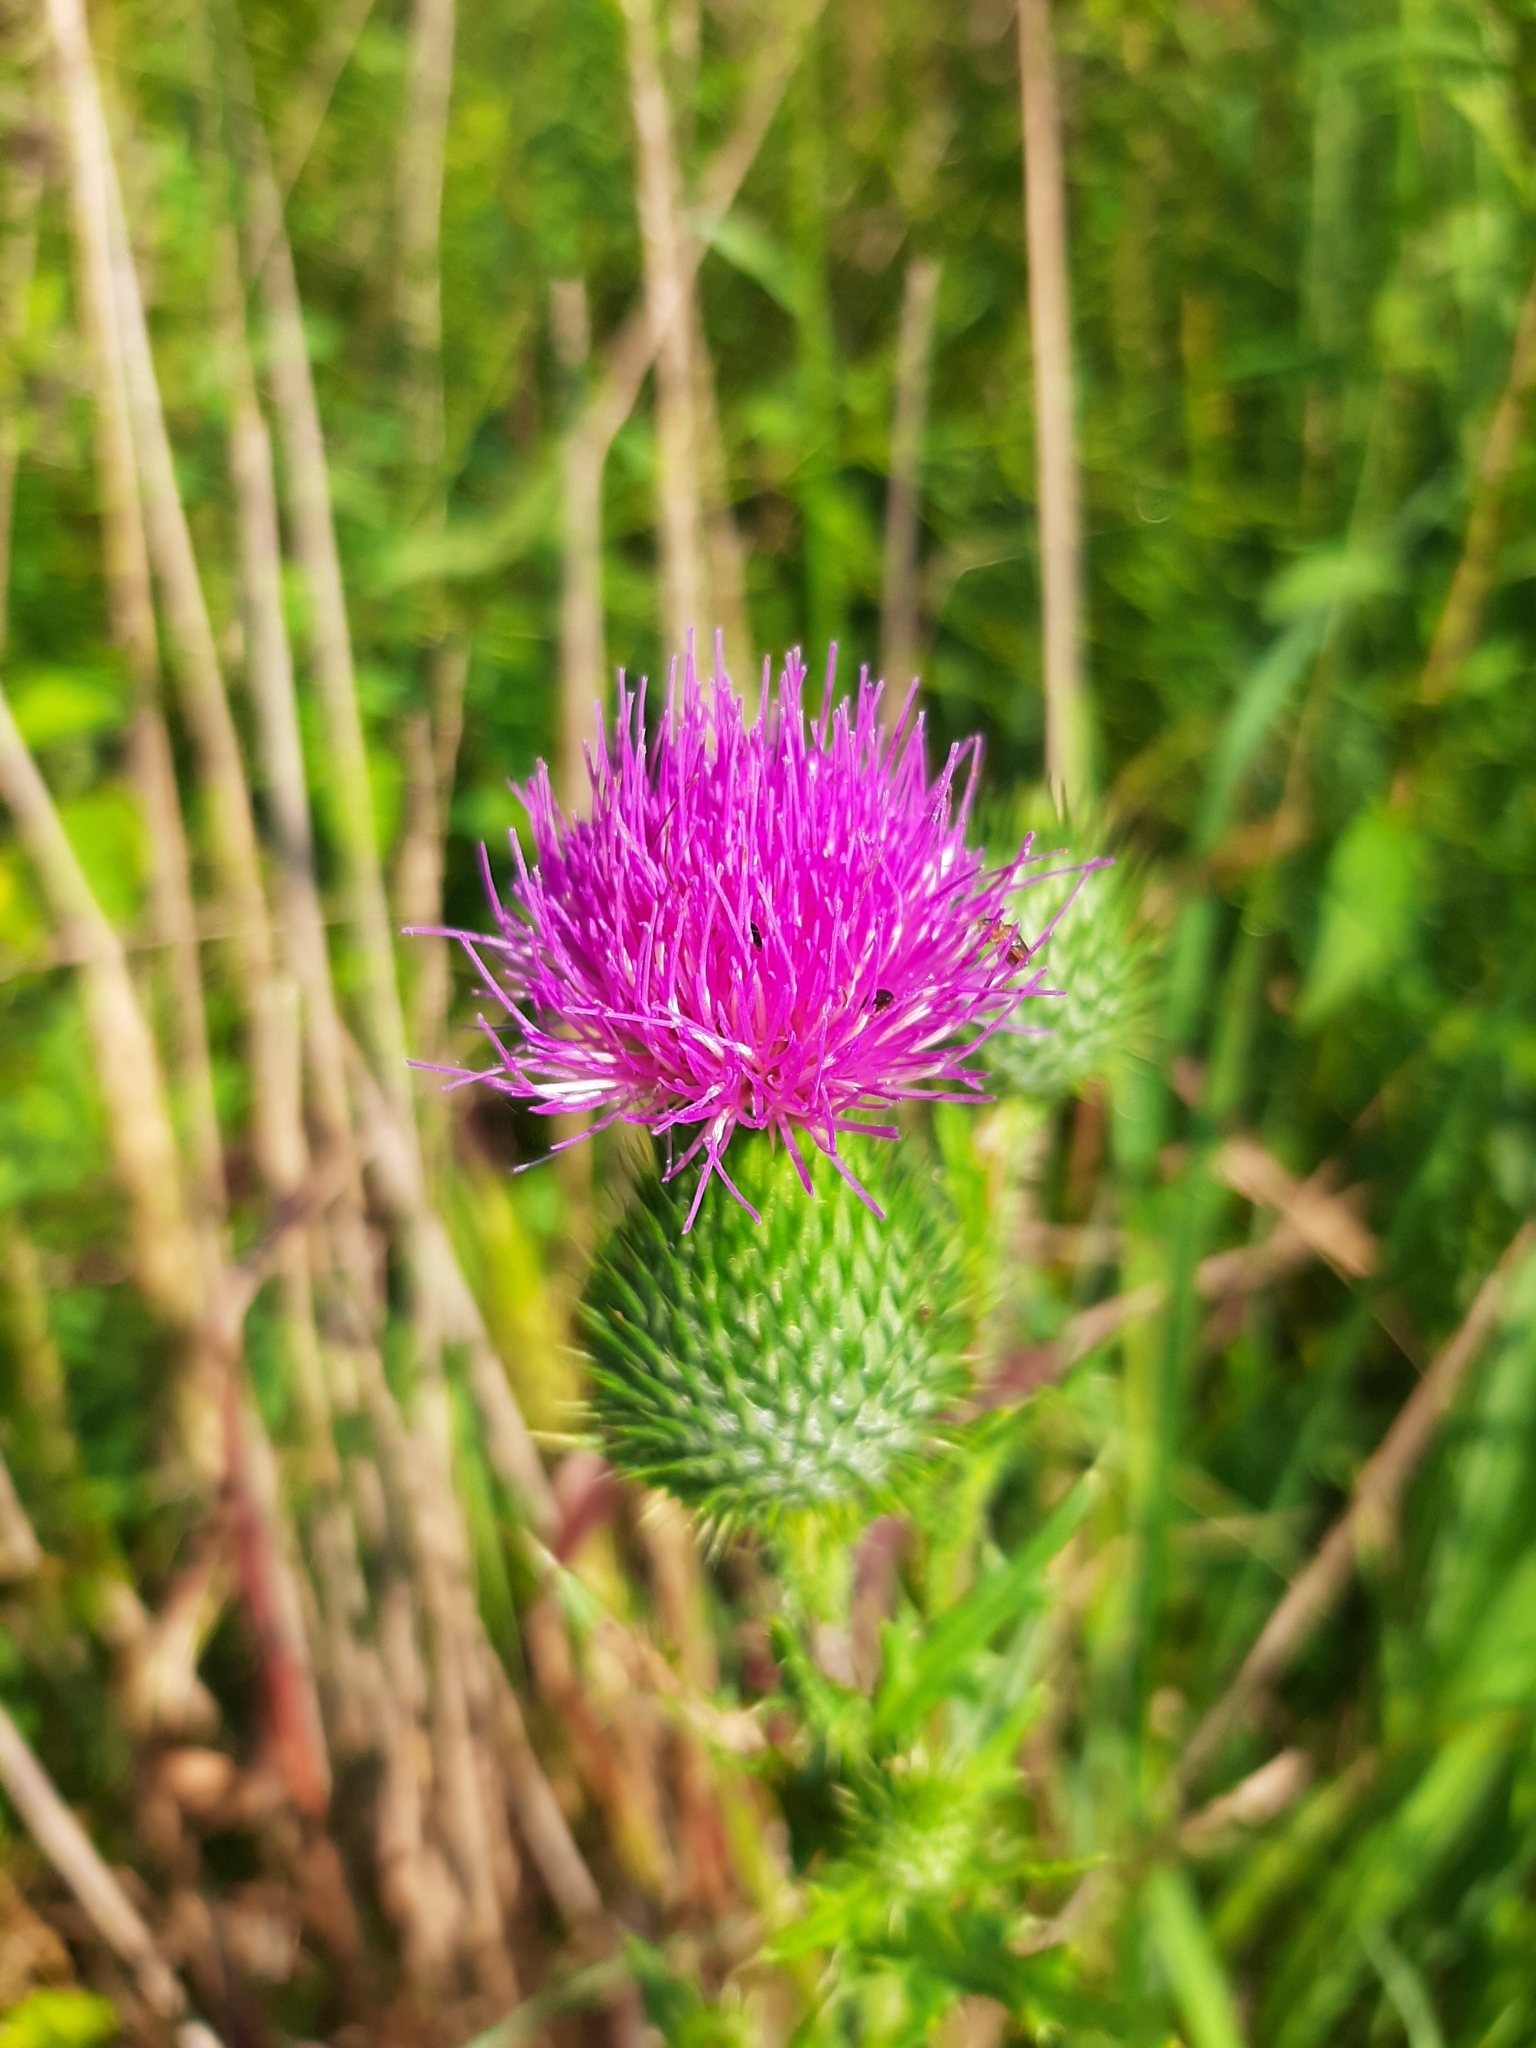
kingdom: Plantae
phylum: Tracheophyta
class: Magnoliopsida
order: Asterales
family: Asteraceae
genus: Cirsium
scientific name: Cirsium vulgare
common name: Bull thistle
